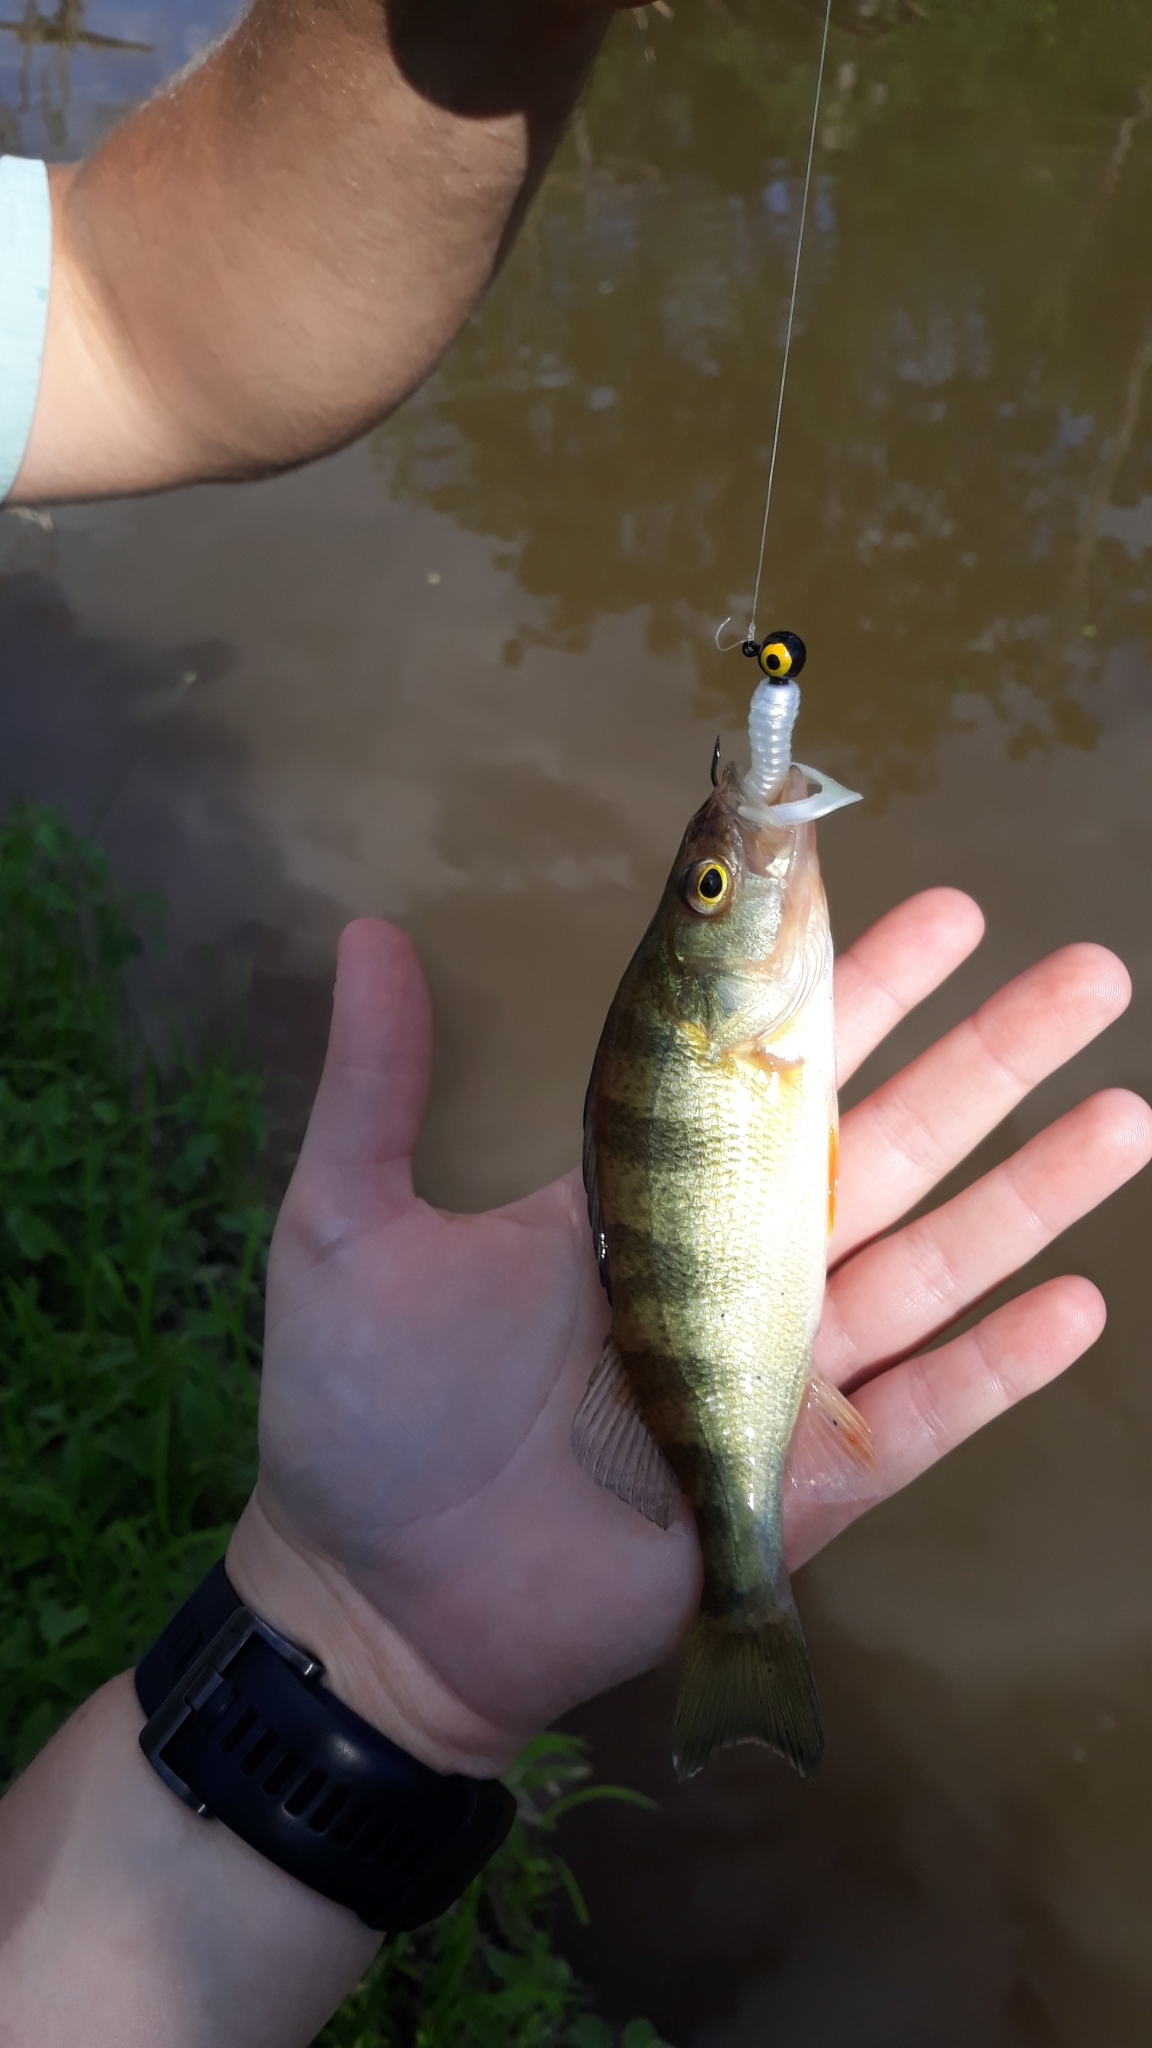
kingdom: Animalia
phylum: Chordata
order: Perciformes
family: Percidae
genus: Perca
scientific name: Perca flavescens
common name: Yellow perch
